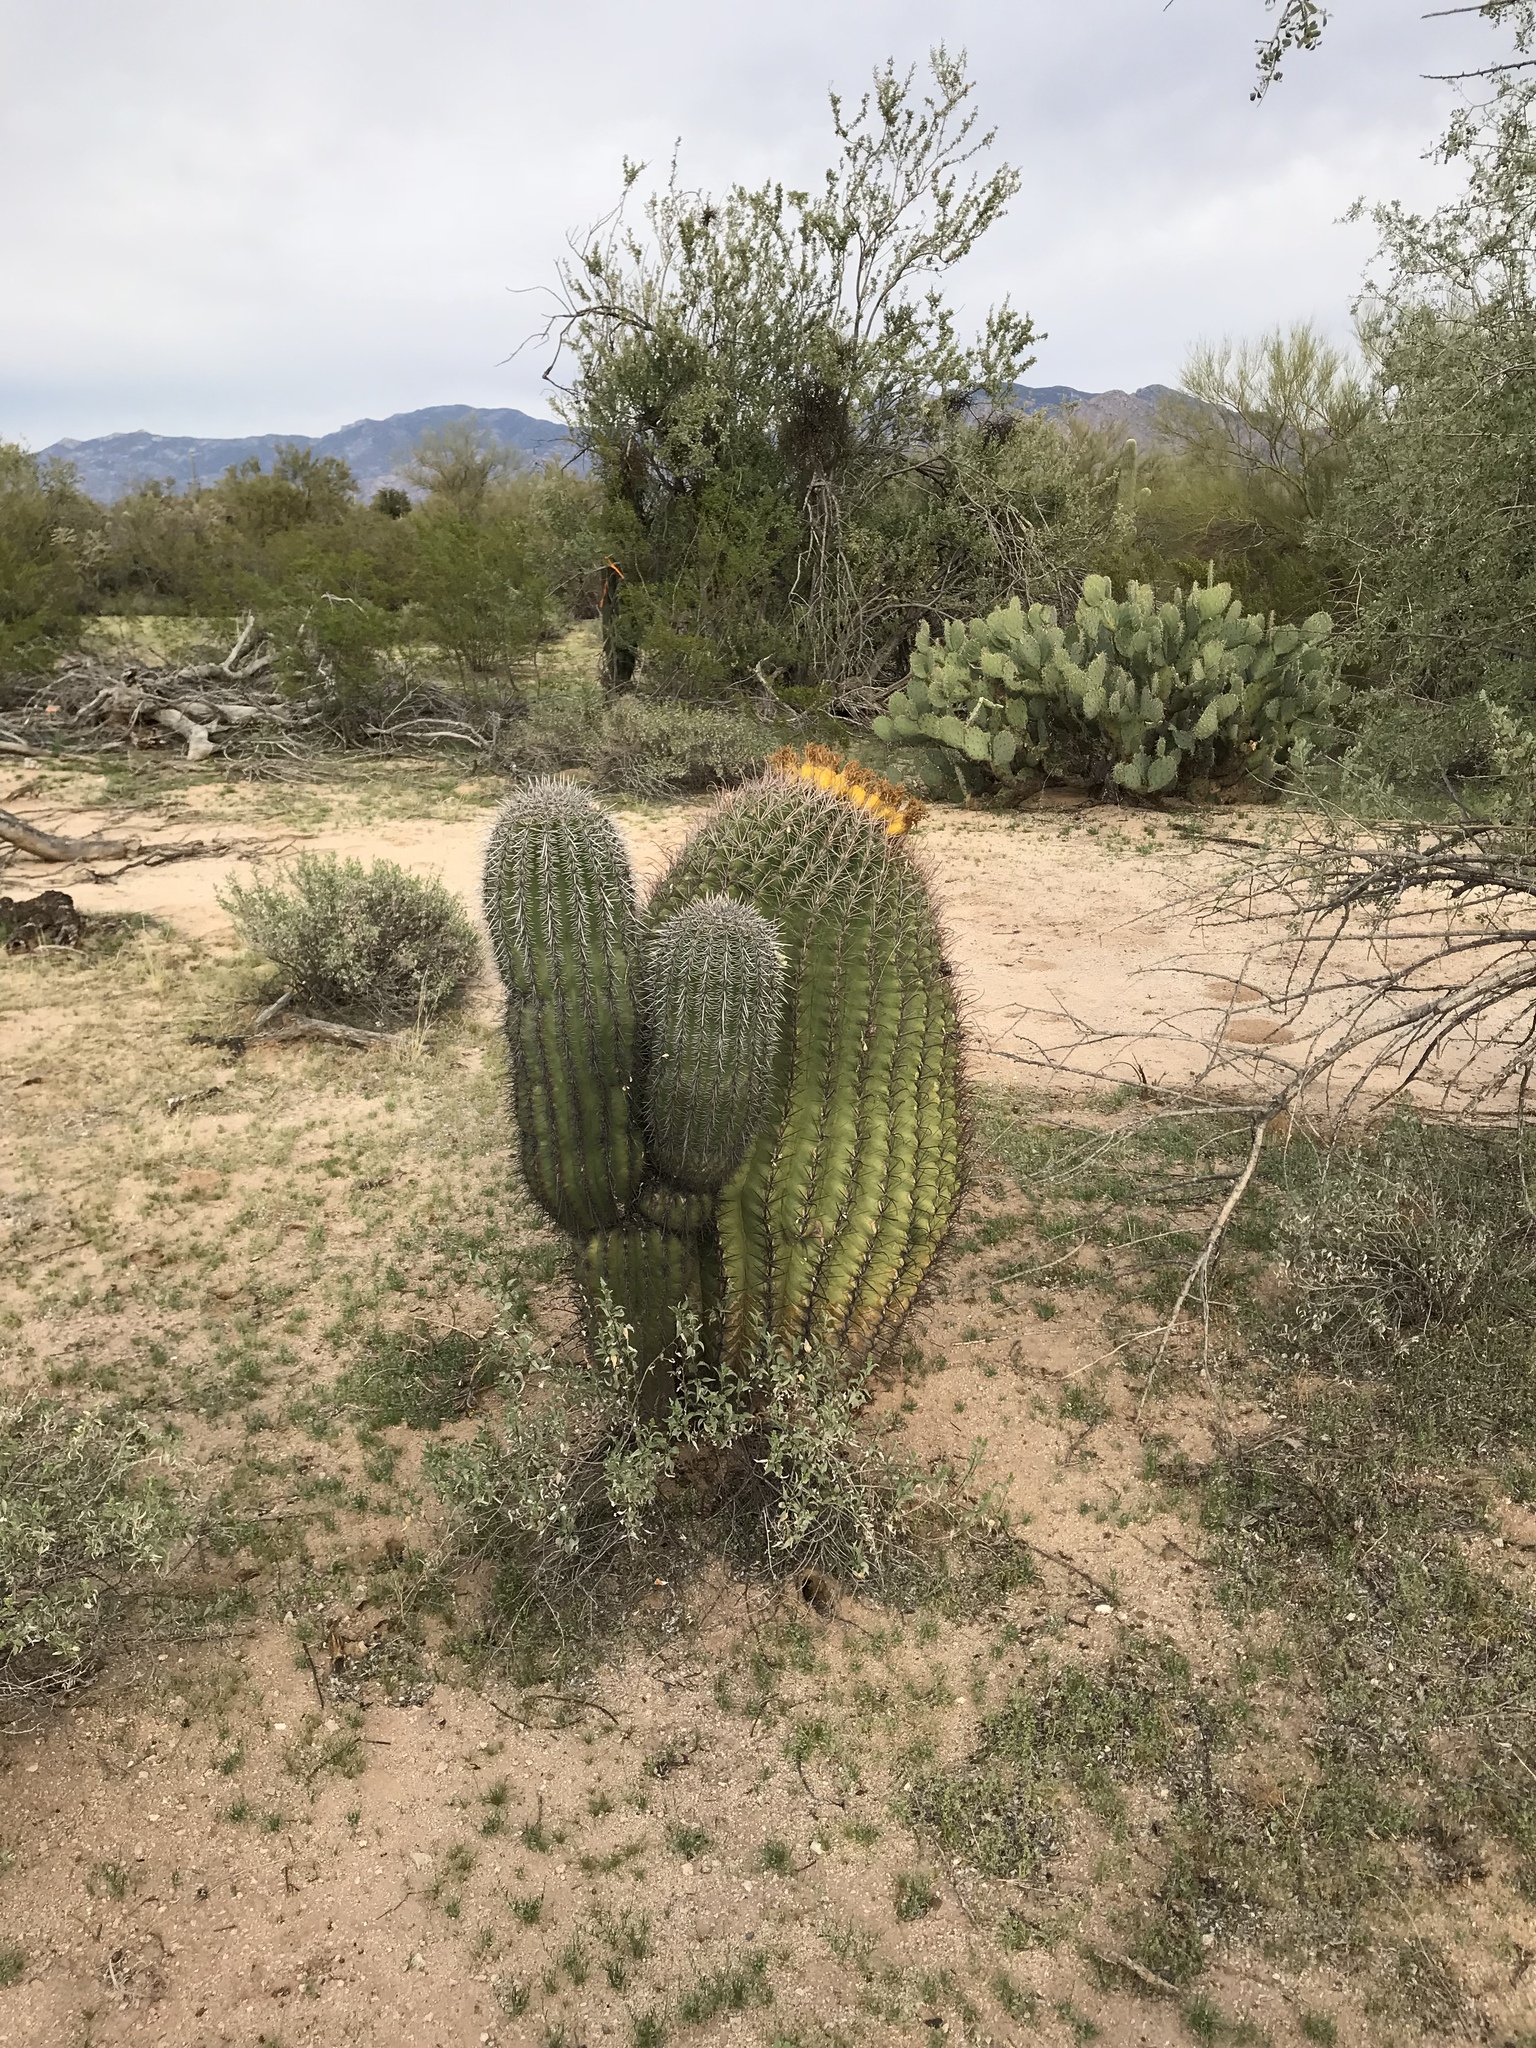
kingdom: Plantae
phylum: Tracheophyta
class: Magnoliopsida
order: Caryophyllales
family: Cactaceae
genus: Ferocactus
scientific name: Ferocactus wislizeni
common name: Candy barrel cactus
